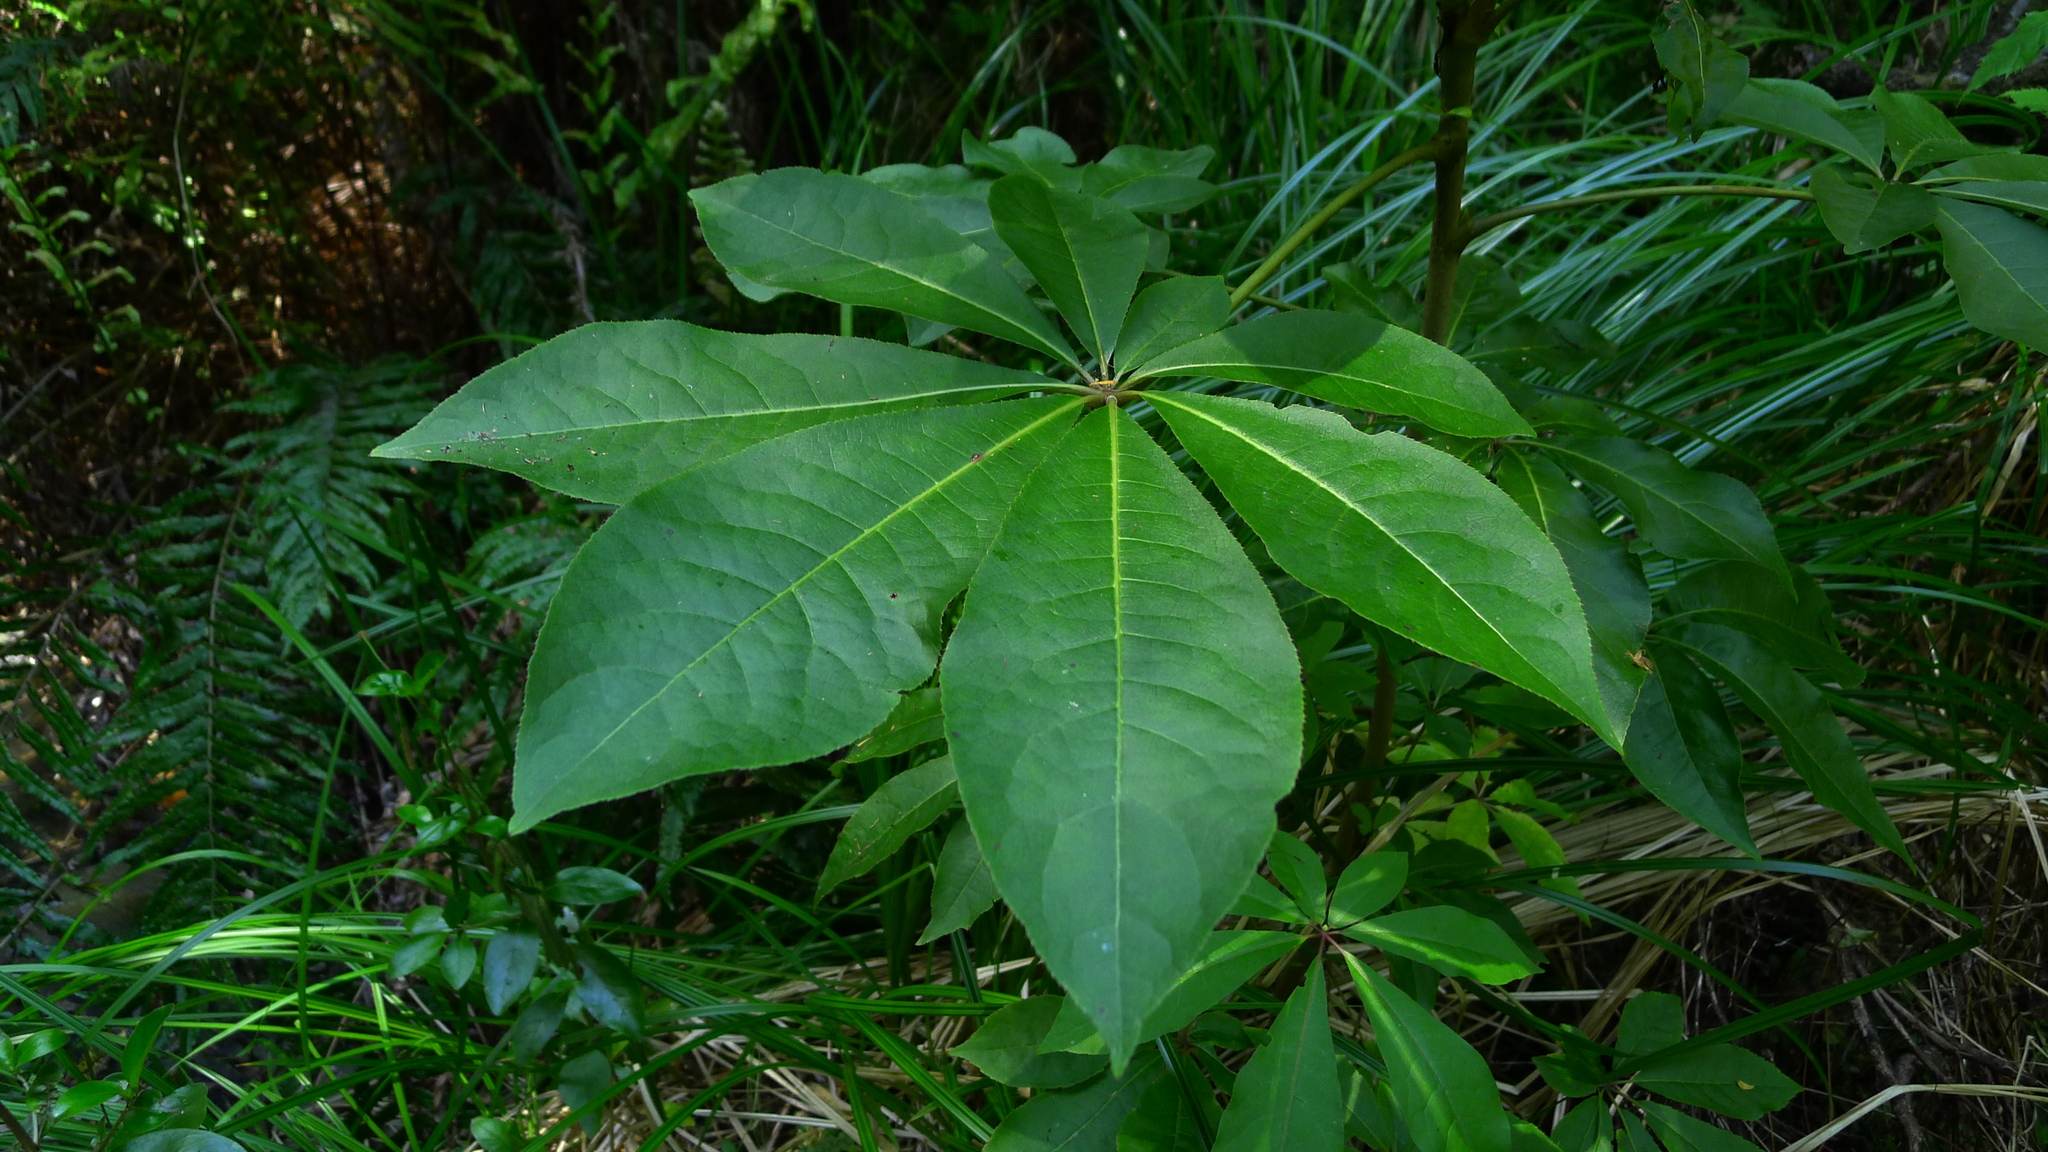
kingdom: Plantae
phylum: Tracheophyta
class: Magnoliopsida
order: Apiales
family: Araliaceae
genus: Schefflera
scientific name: Schefflera digitata
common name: Pate
